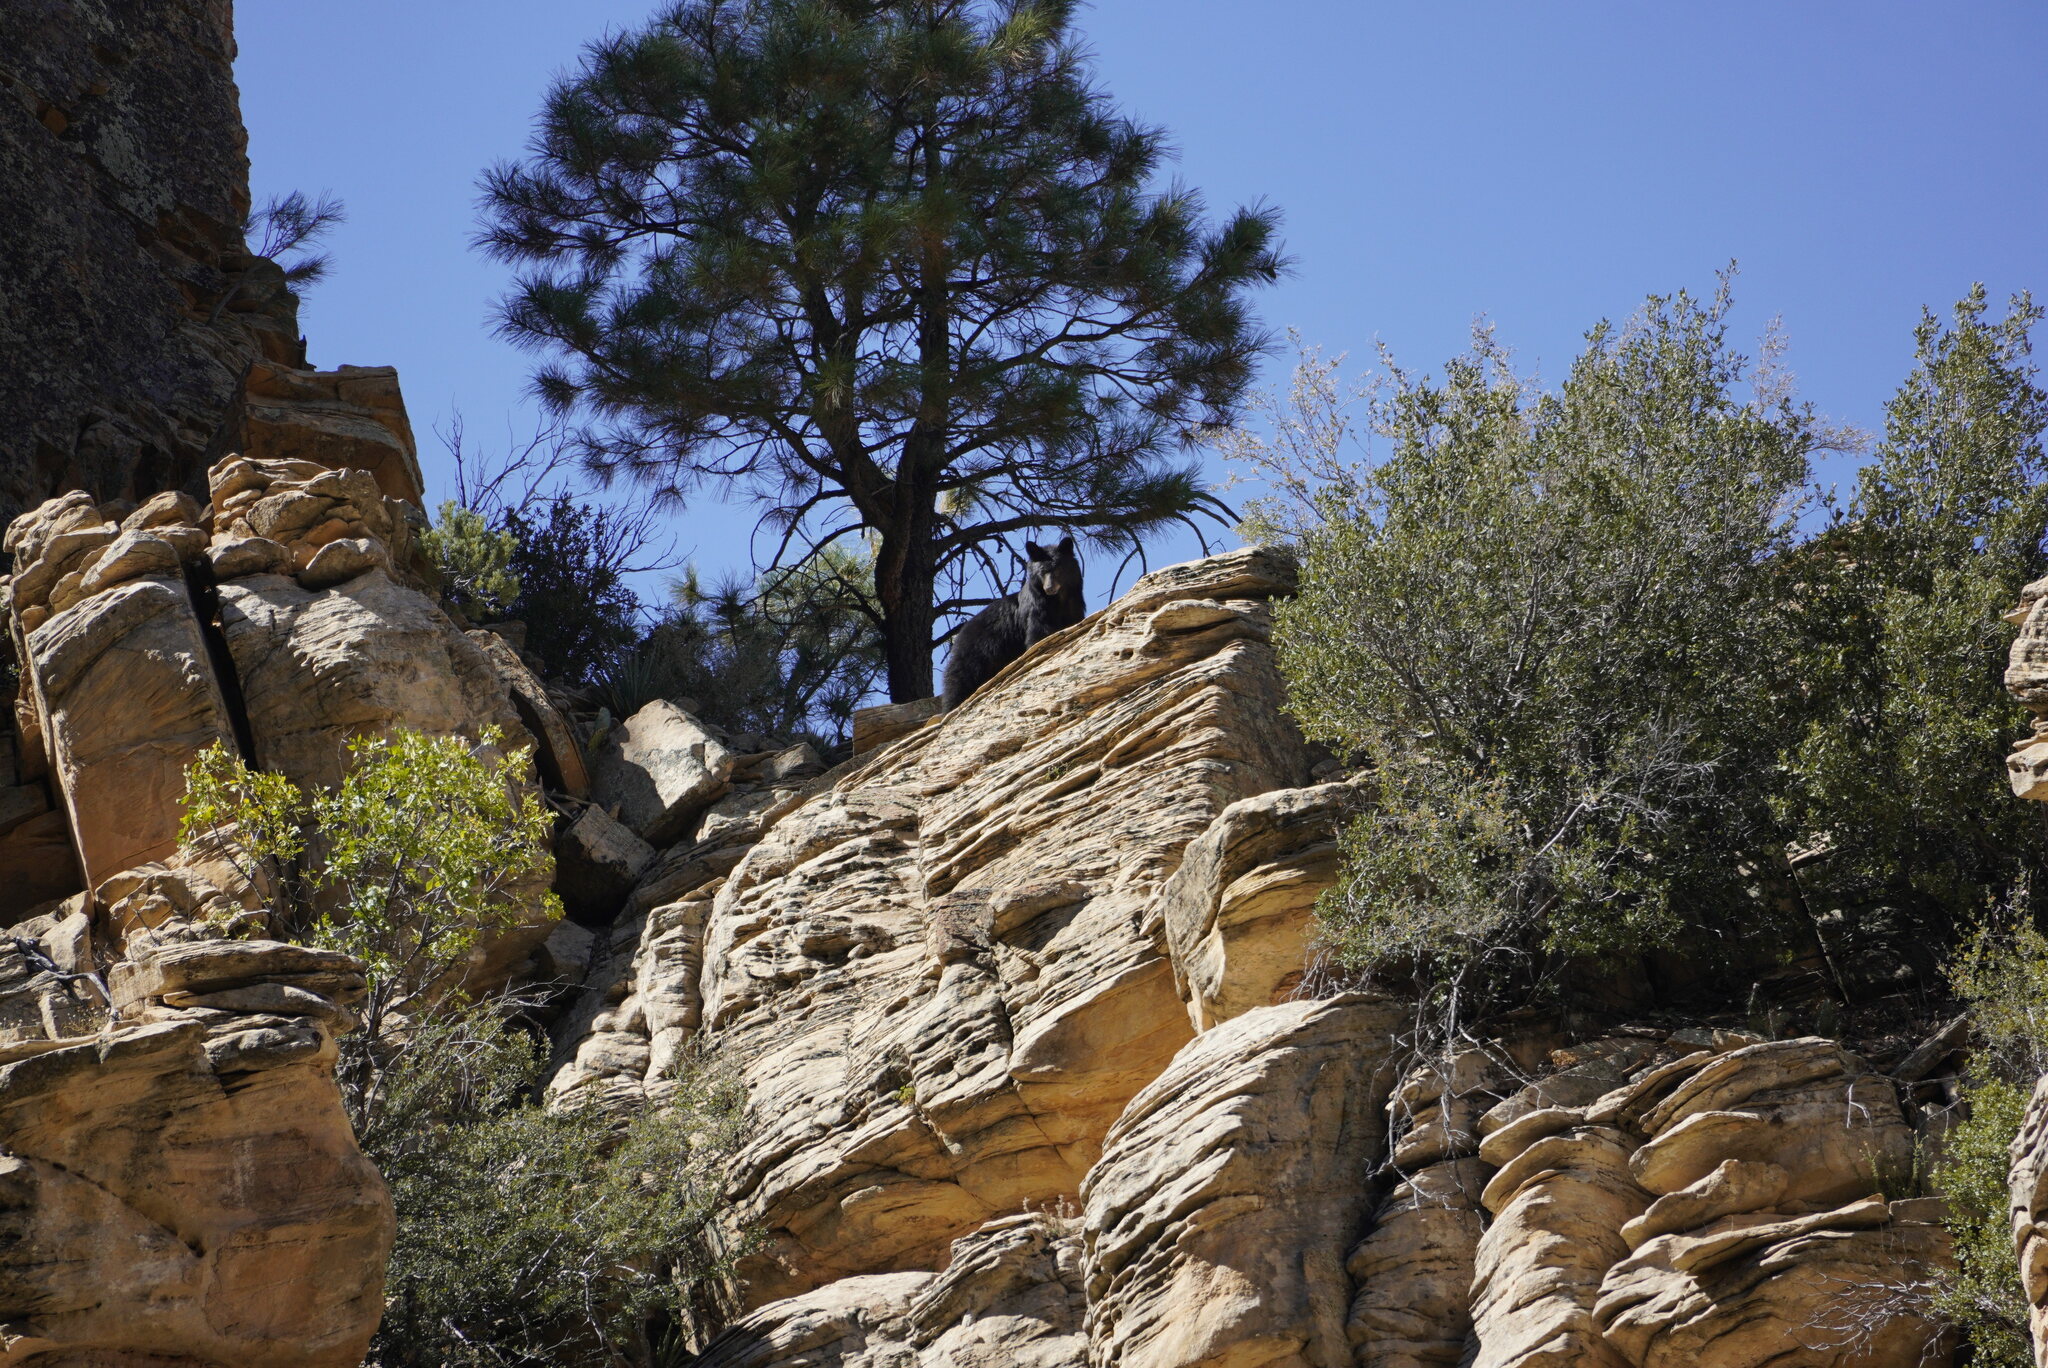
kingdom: Animalia
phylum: Chordata
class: Mammalia
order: Carnivora
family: Ursidae
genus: Ursus
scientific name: Ursus americanus
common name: American black bear
